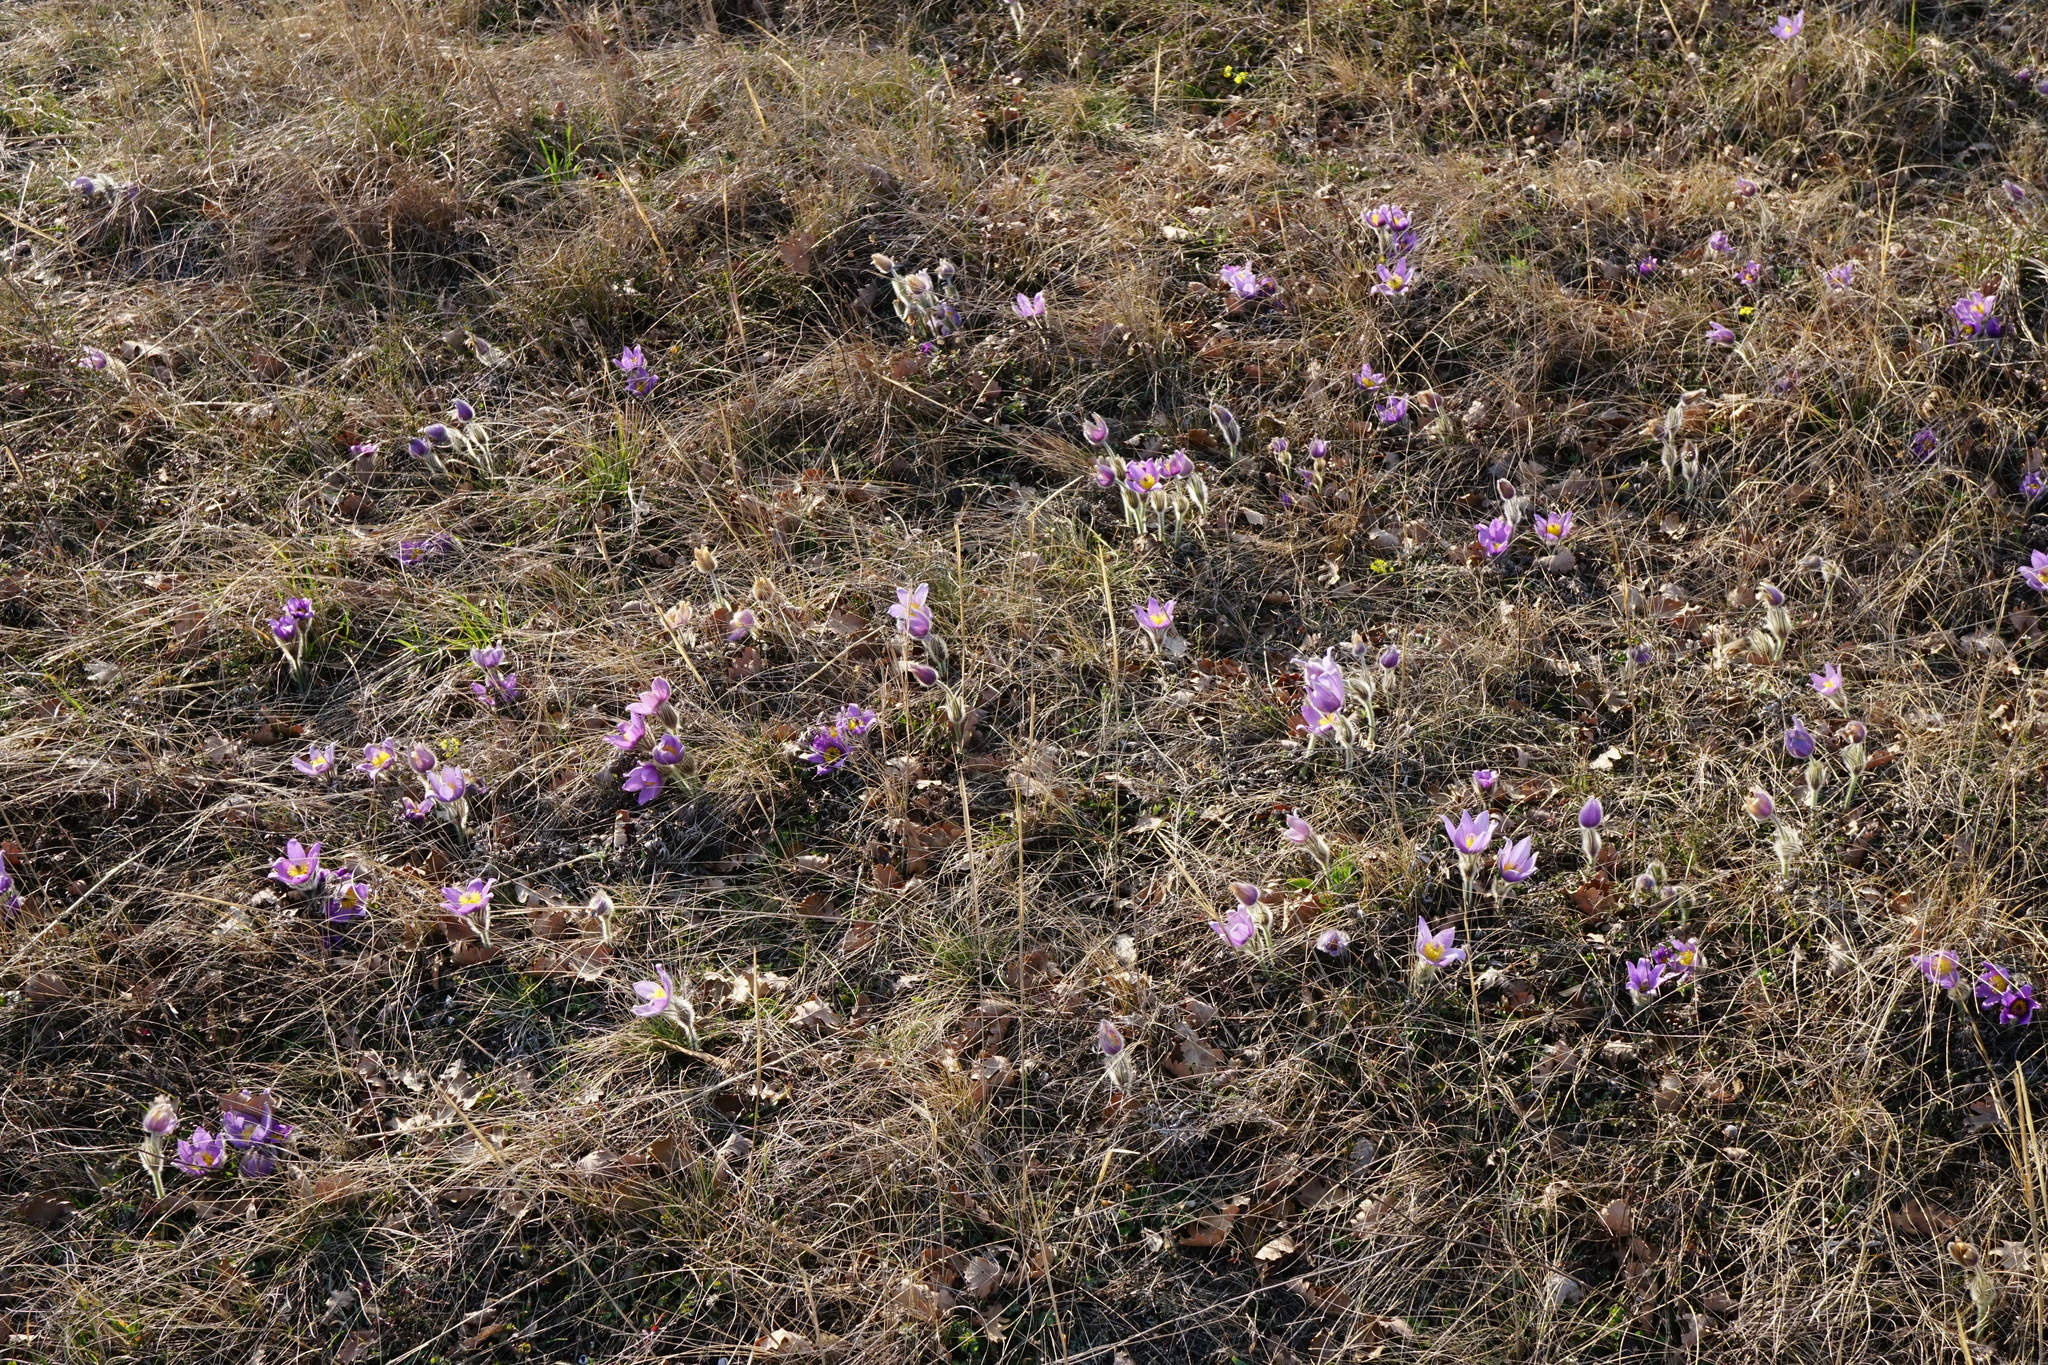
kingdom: Plantae
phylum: Tracheophyta
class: Magnoliopsida
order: Ranunculales
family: Ranunculaceae
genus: Pulsatilla
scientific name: Pulsatilla grandis
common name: Greater pasque flower
